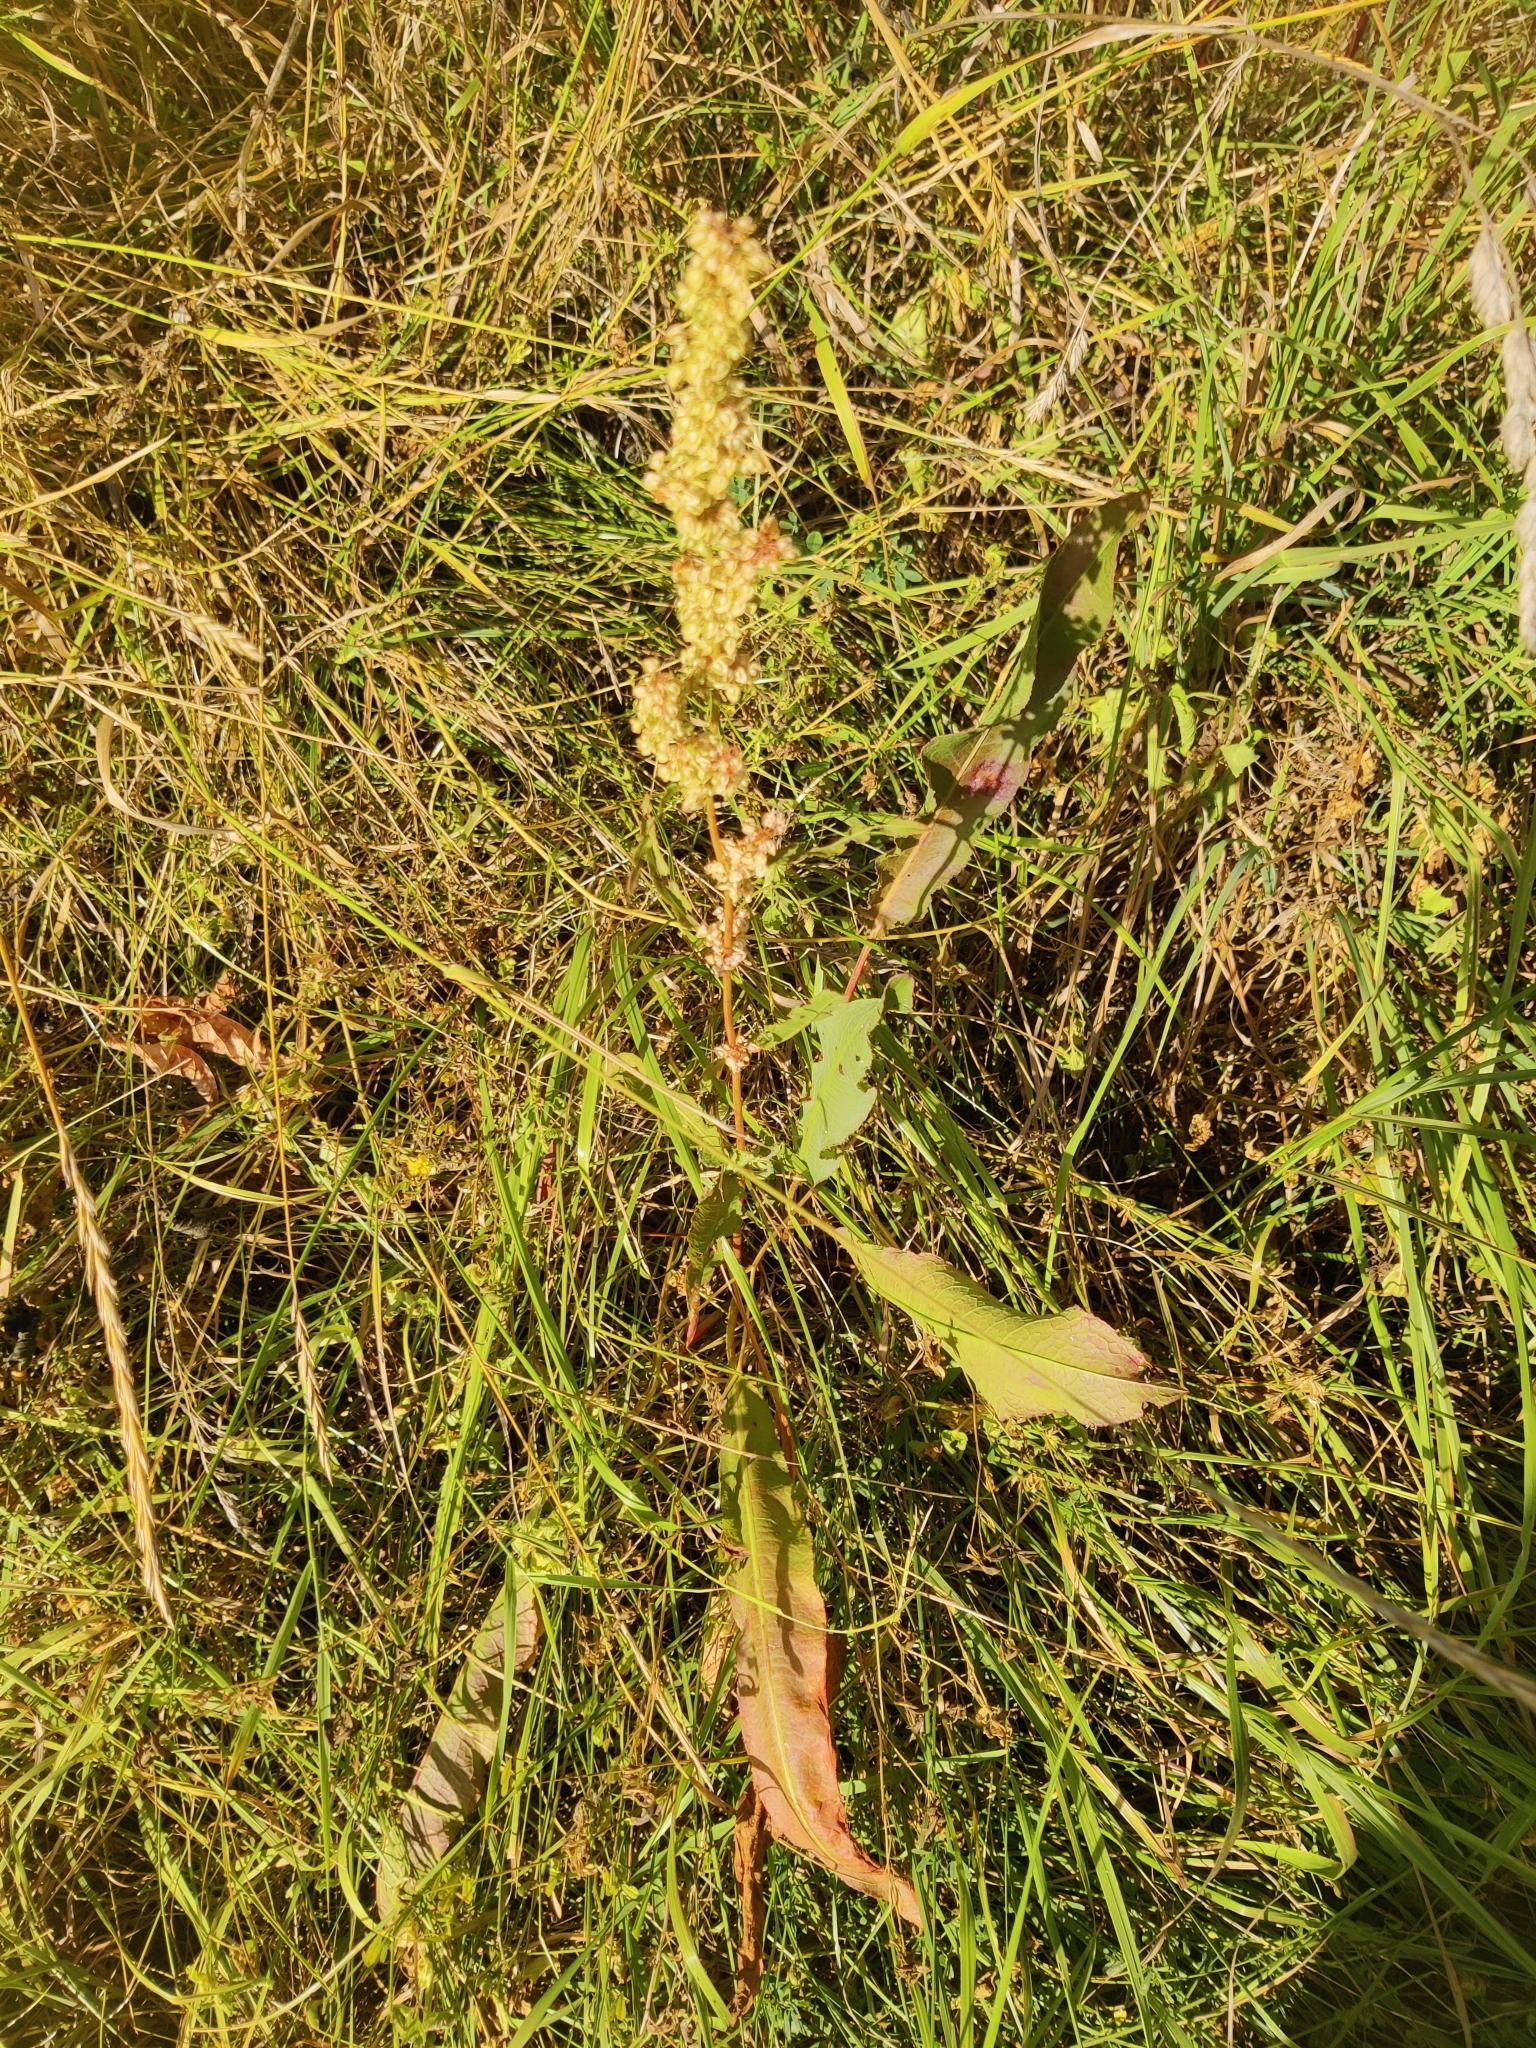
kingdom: Plantae
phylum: Tracheophyta
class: Magnoliopsida
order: Caryophyllales
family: Polygonaceae
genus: Rumex
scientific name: Rumex crispus
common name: Curled dock
